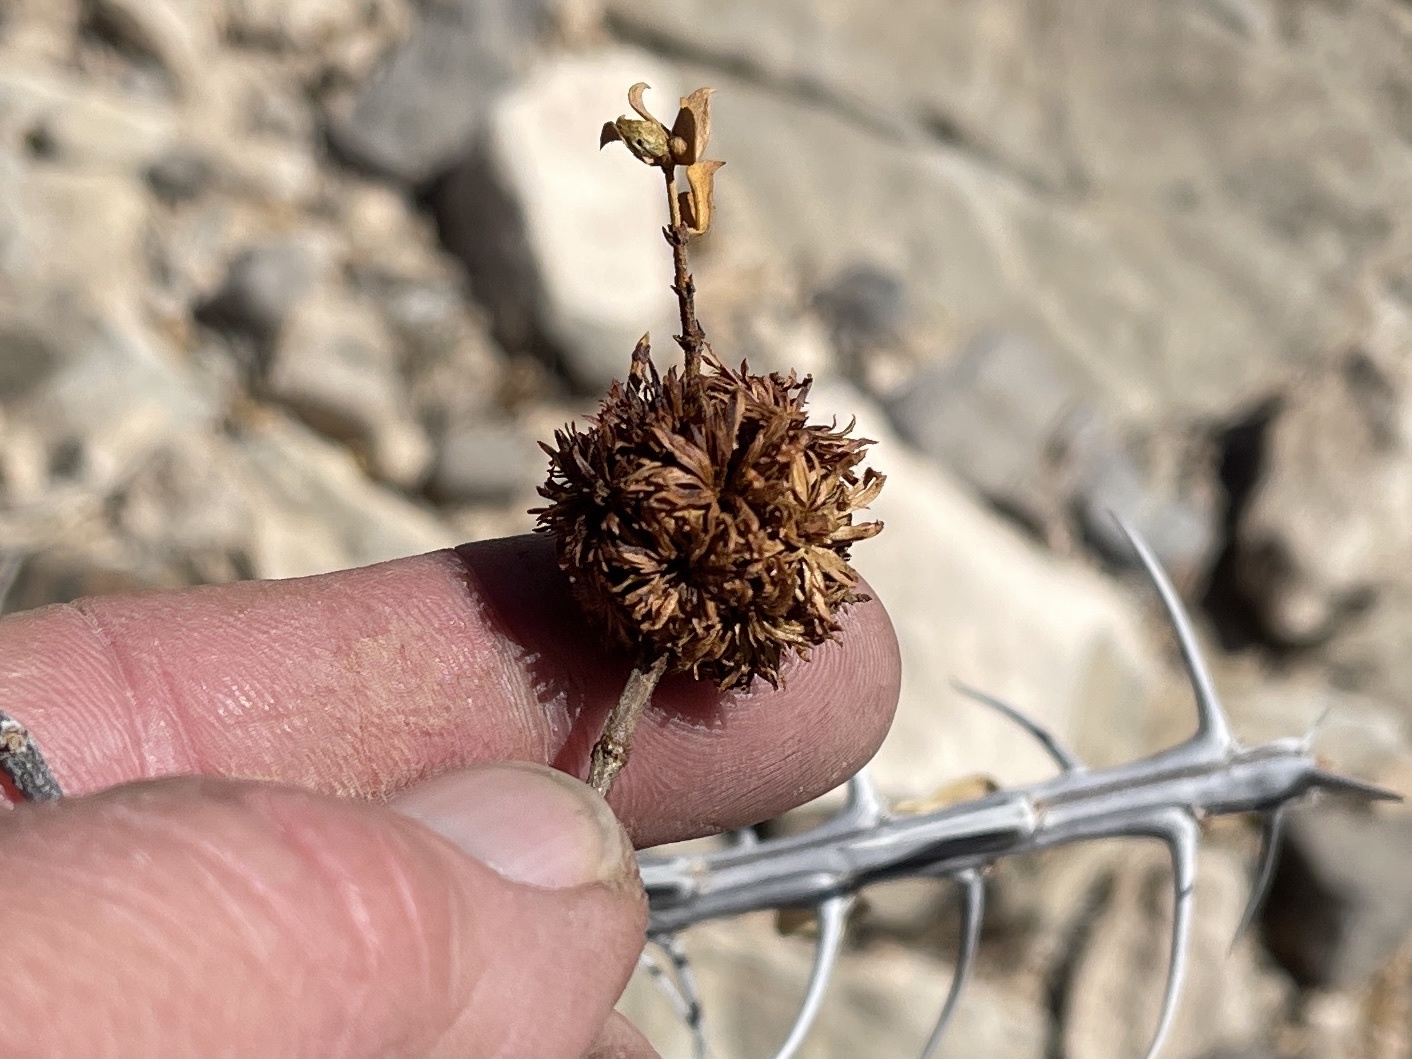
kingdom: Animalia
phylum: Arthropoda
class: Insecta
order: Diptera
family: Cecidomyiidae
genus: Asphondylia
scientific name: Asphondylia auripila
